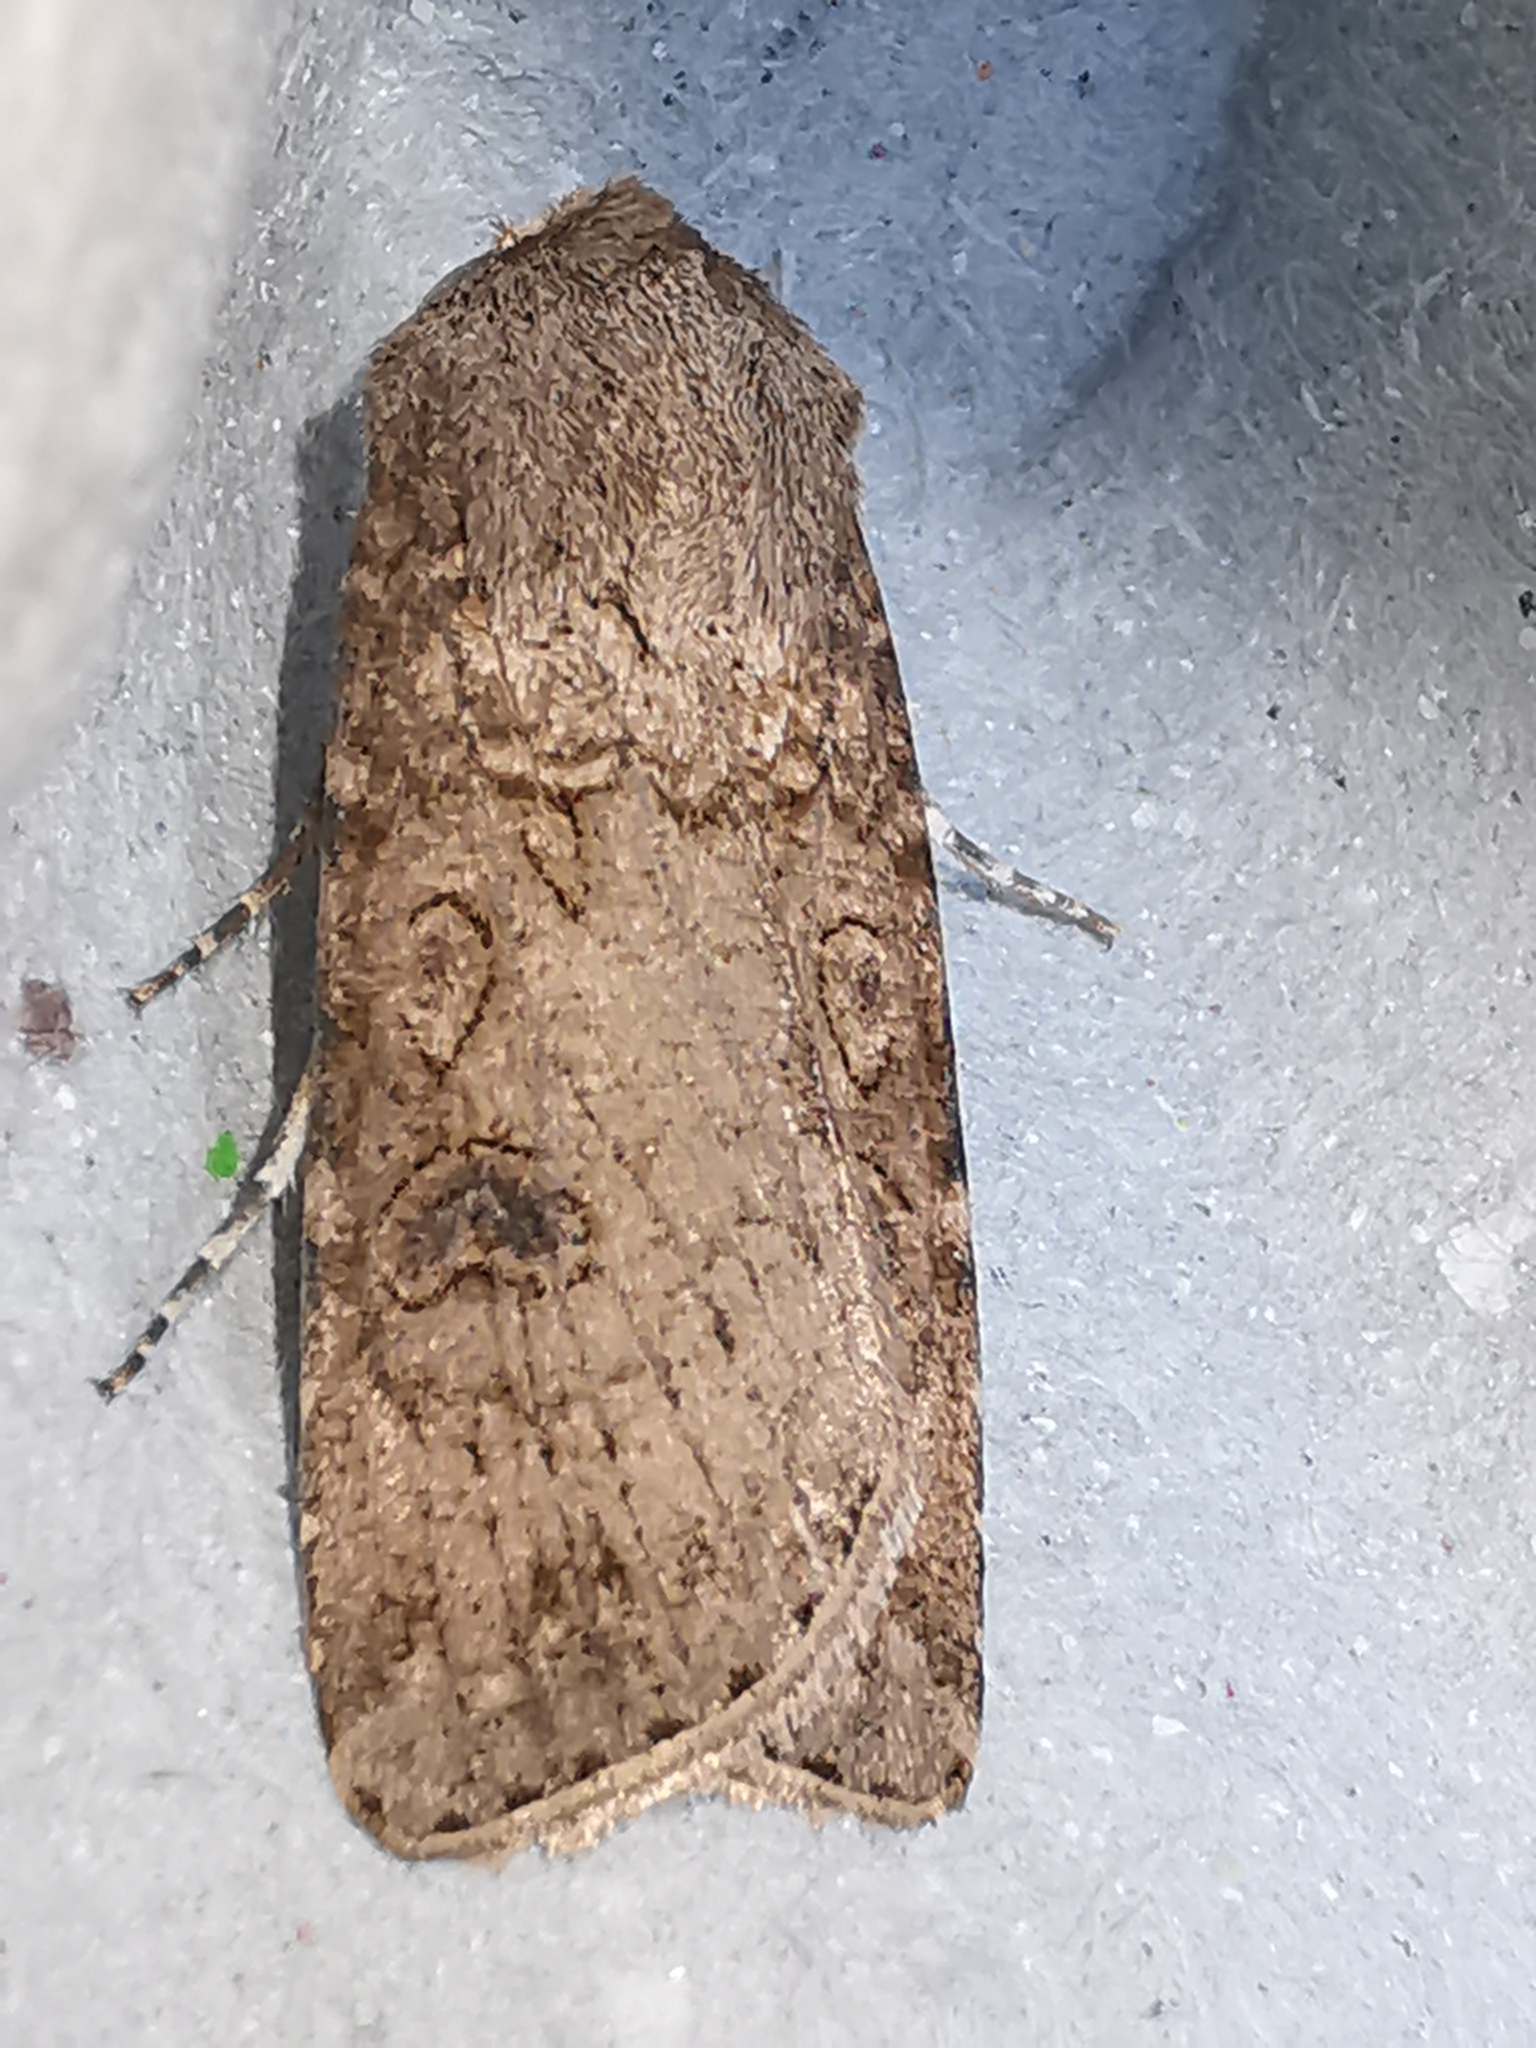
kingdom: Animalia
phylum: Arthropoda
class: Insecta
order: Lepidoptera
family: Noctuidae
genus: Agrotis
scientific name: Agrotis segetum
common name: Turnip moth
